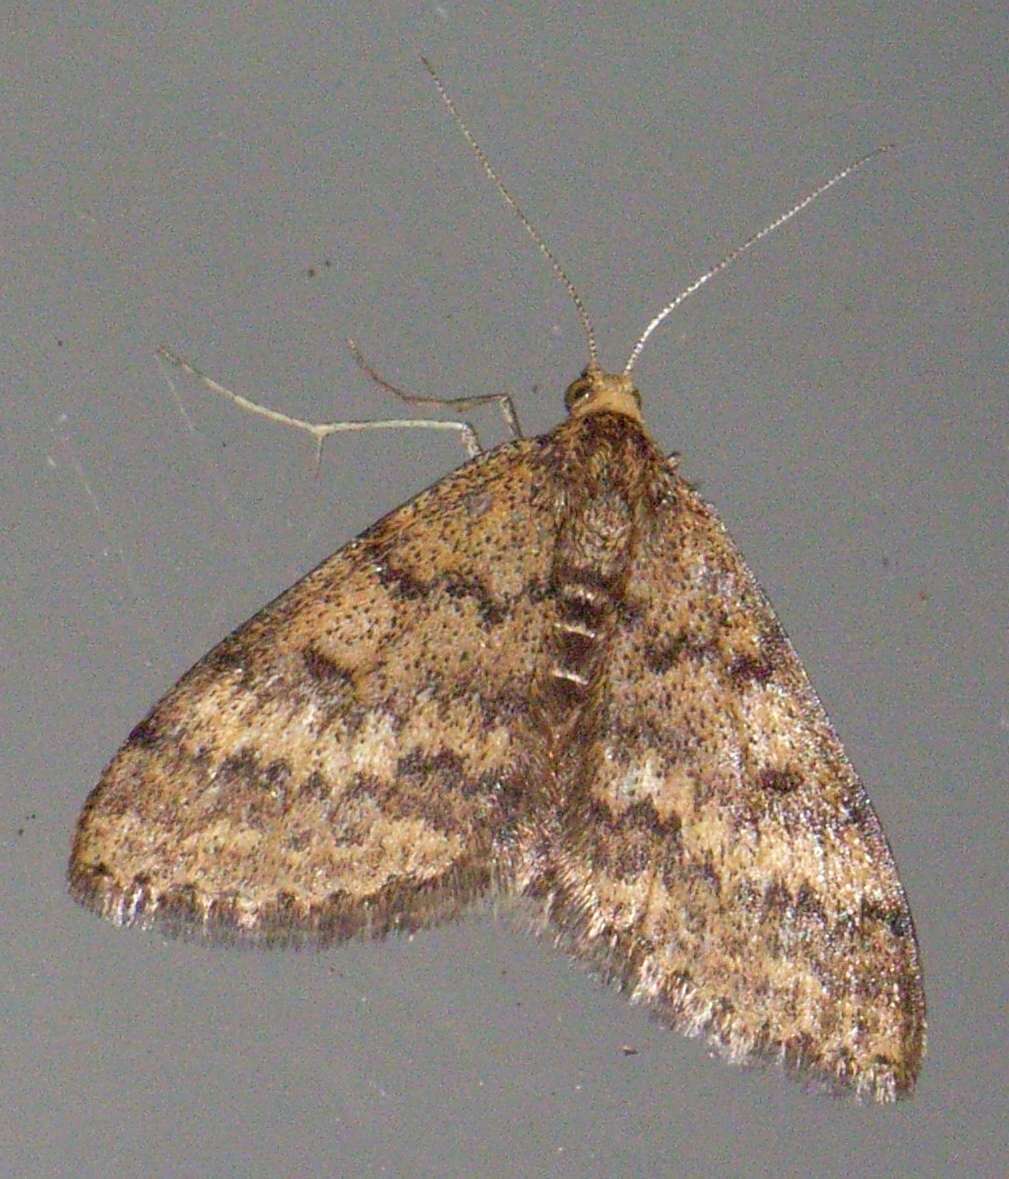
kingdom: Animalia
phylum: Arthropoda
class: Insecta
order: Lepidoptera
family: Geometridae
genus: Scopula
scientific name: Scopula rubraria
